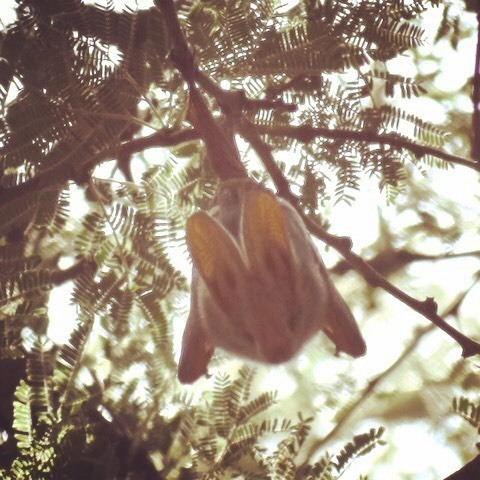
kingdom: Animalia
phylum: Chordata
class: Mammalia
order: Chiroptera
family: Megadermatidae
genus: Lavia
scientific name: Lavia frons
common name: Yellow-winged bat
